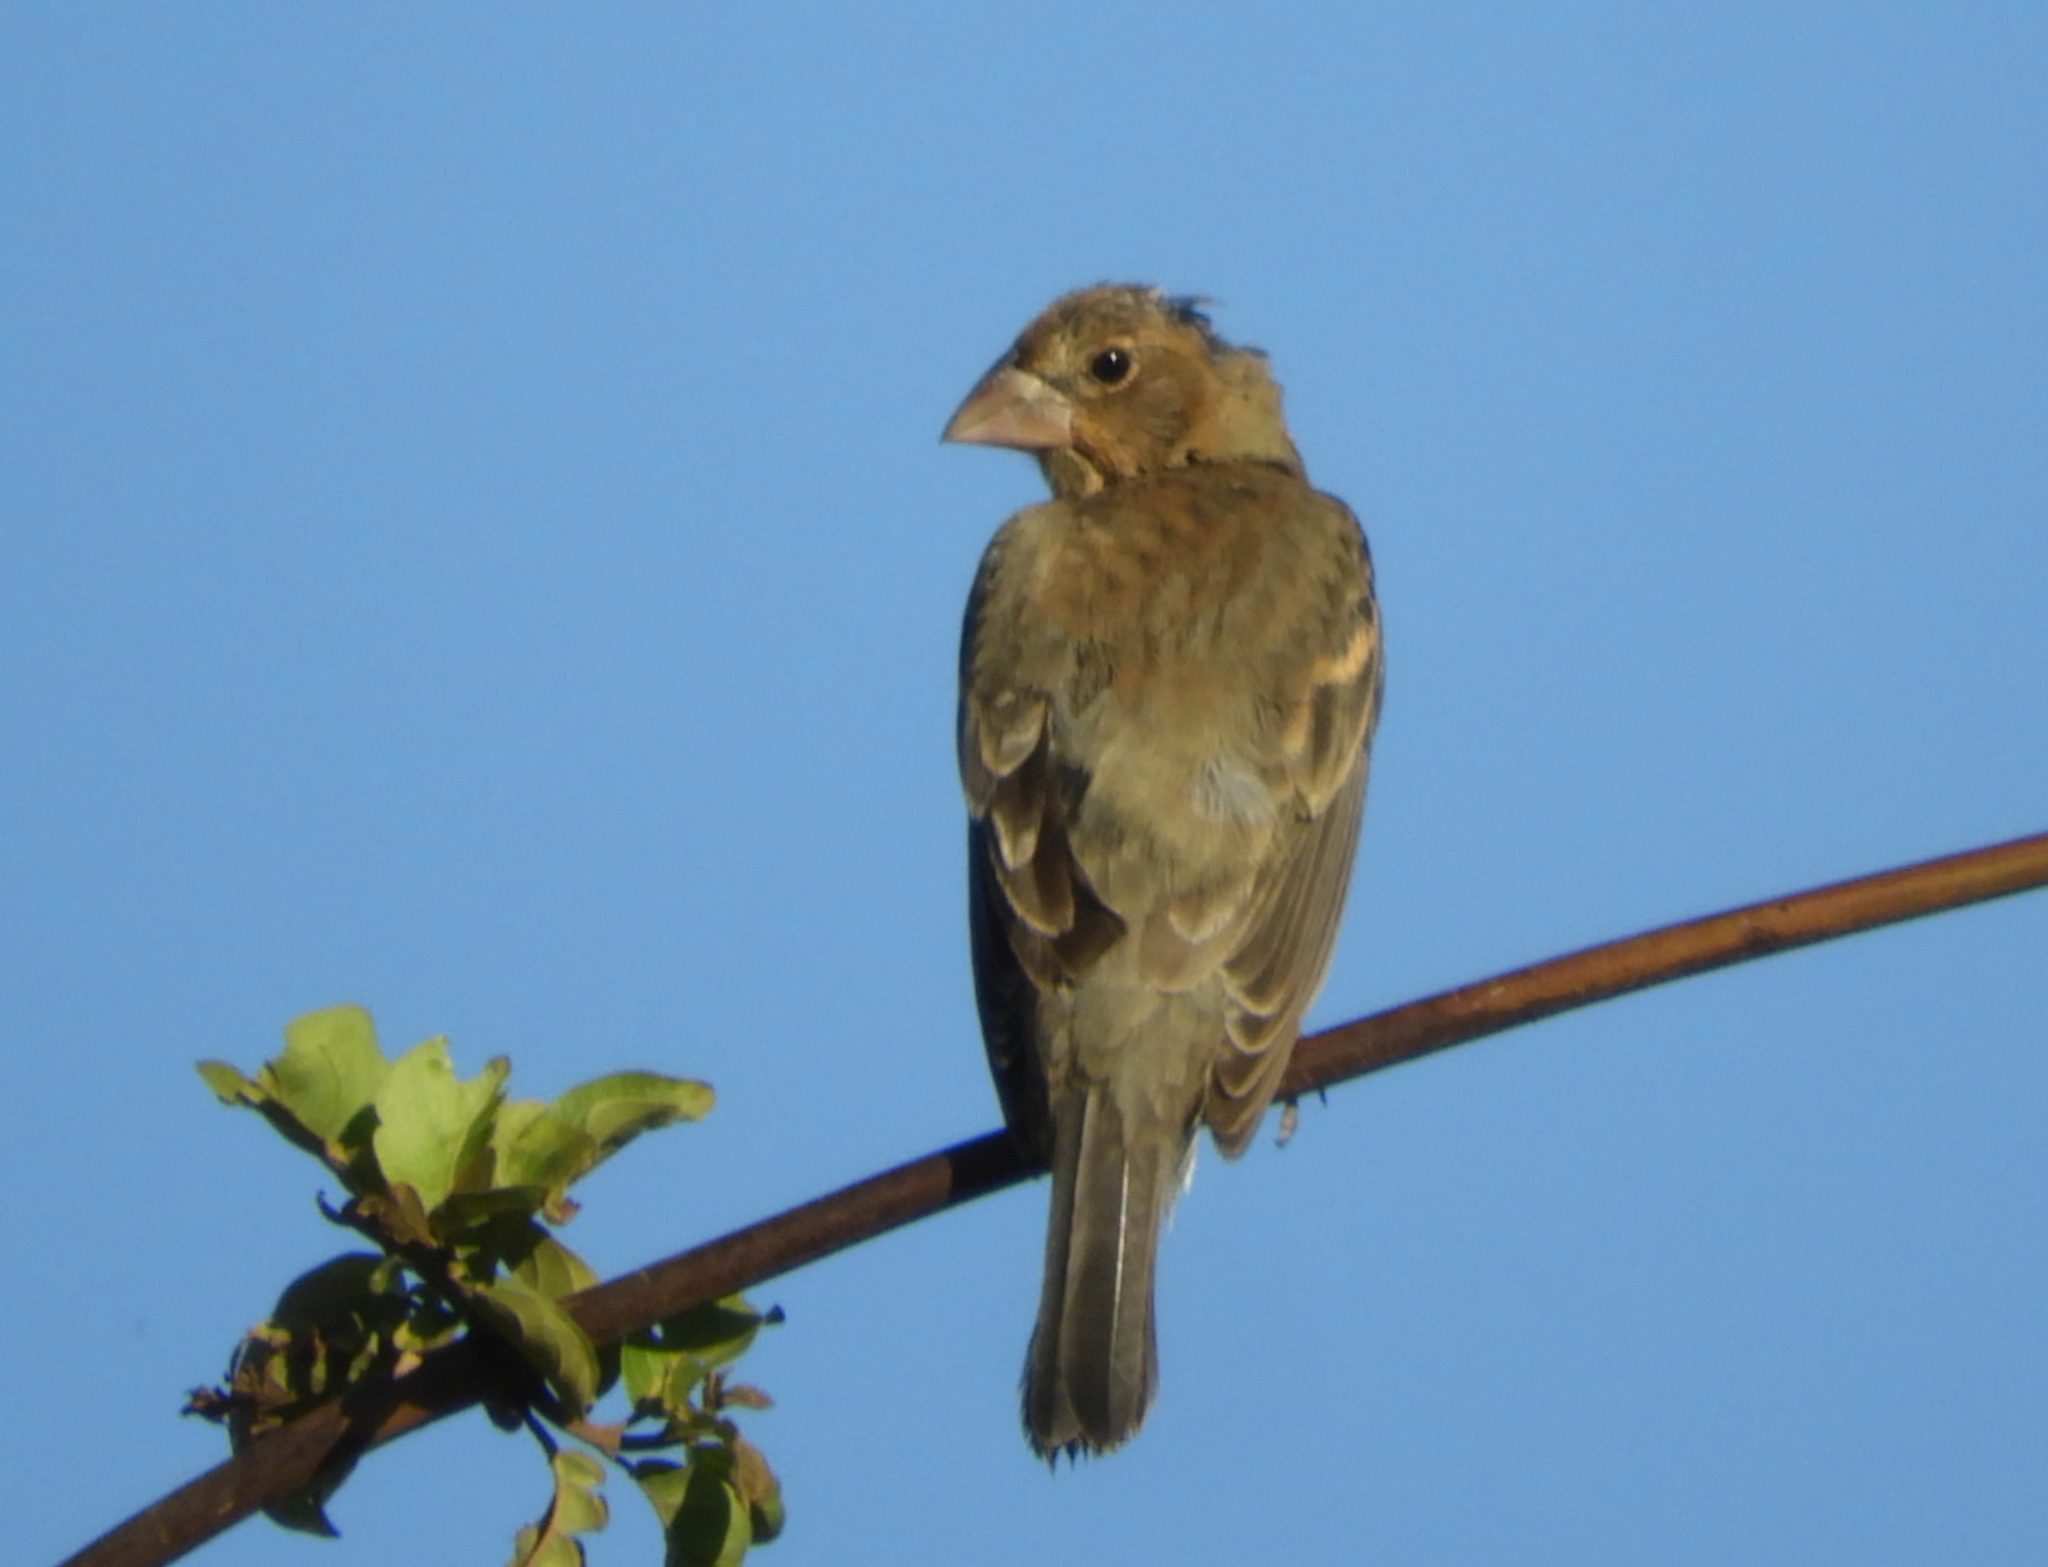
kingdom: Animalia
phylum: Chordata
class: Aves
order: Passeriformes
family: Cardinalidae
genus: Passerina
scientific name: Passerina caerulea
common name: Blue grosbeak
